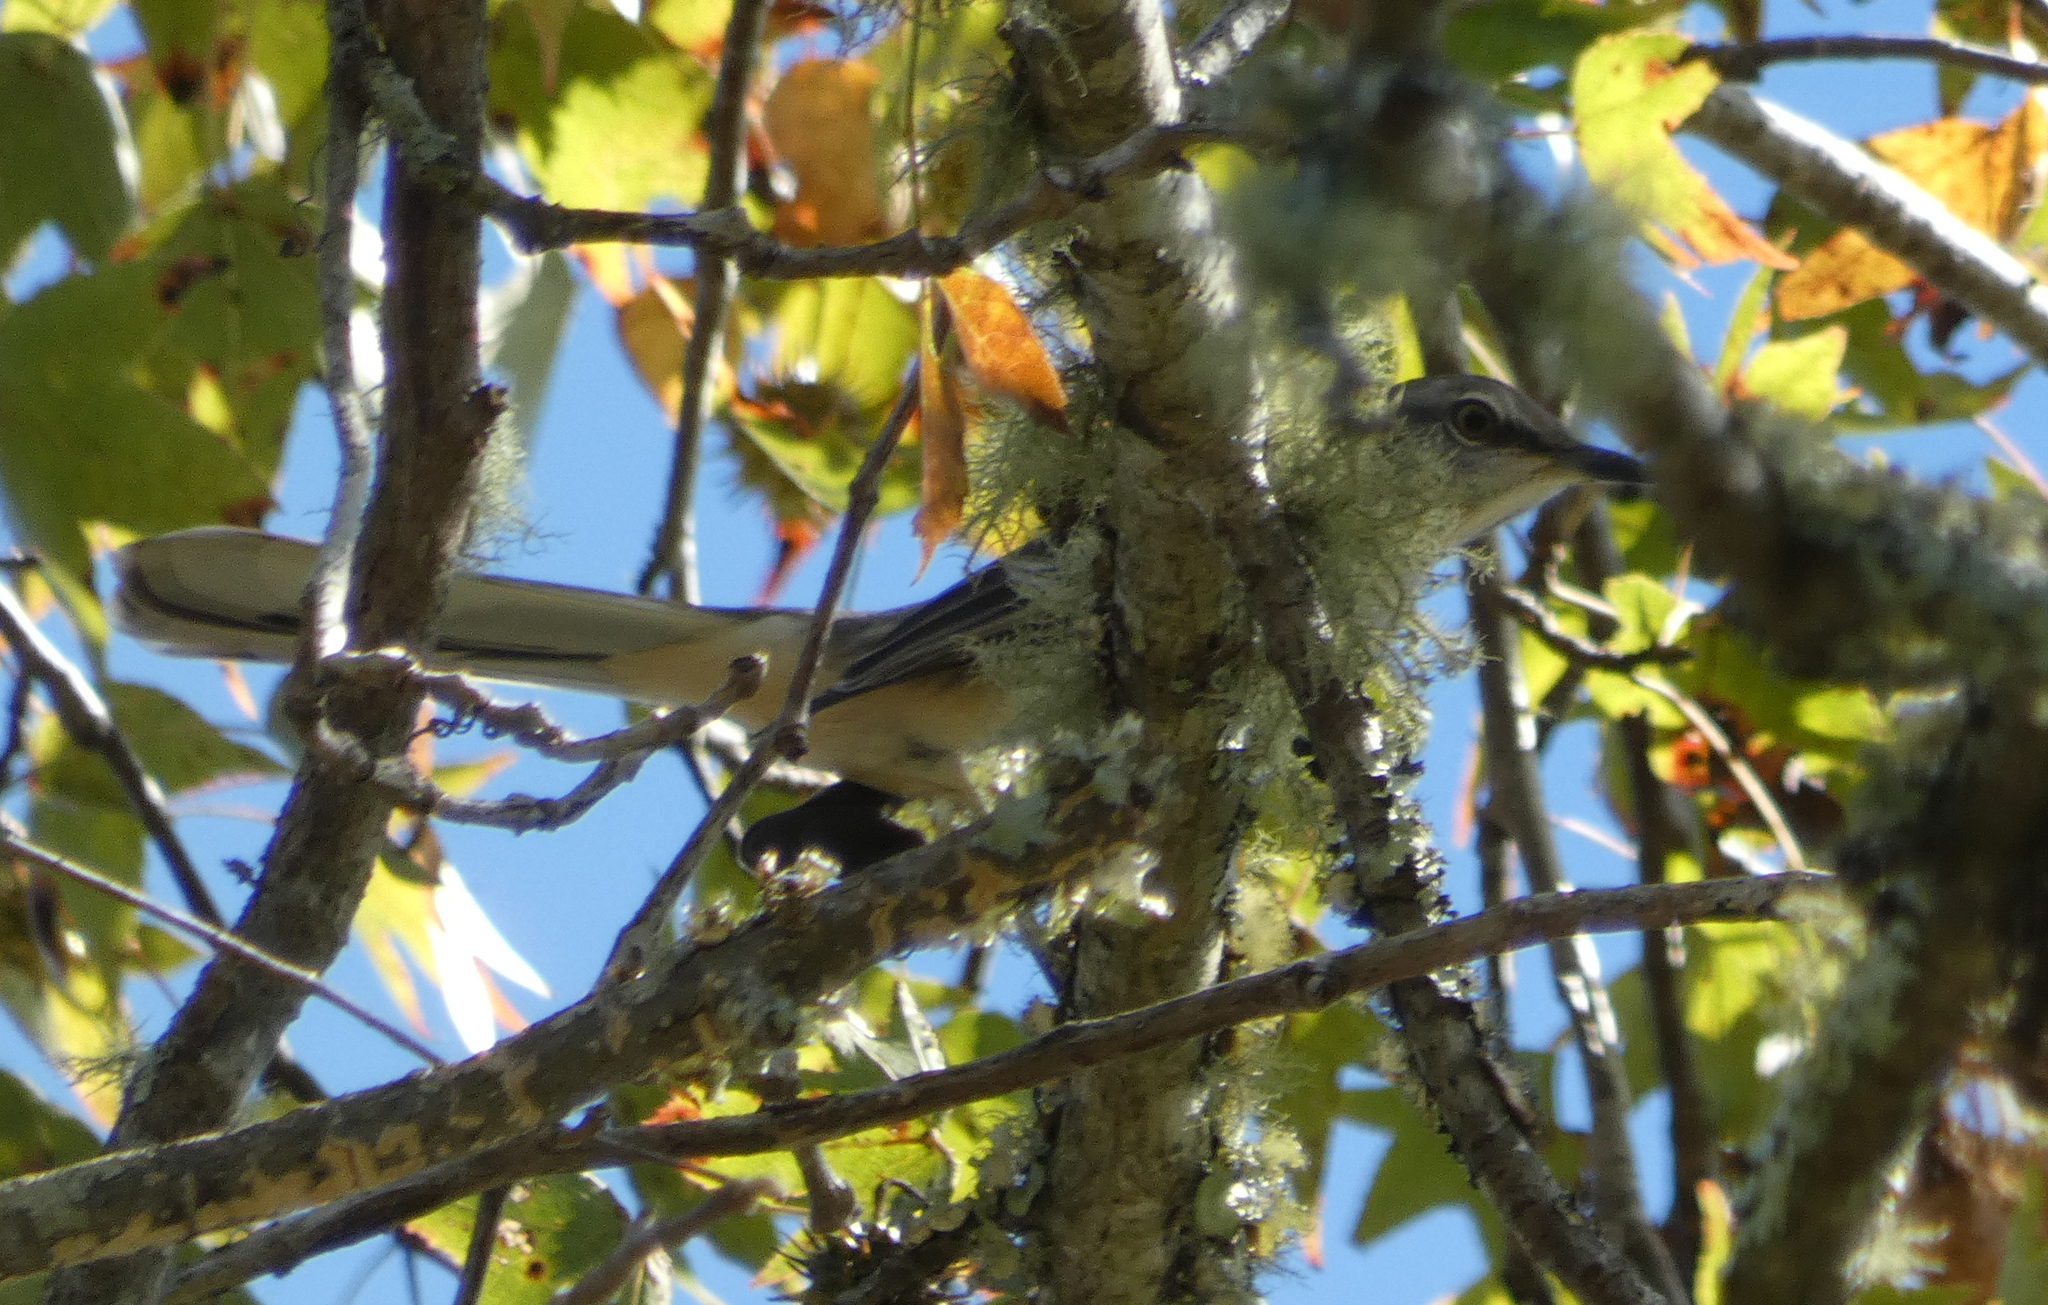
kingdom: Animalia
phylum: Chordata
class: Aves
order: Passeriformes
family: Mimidae
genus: Mimus
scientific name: Mimus polyglottos
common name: Northern mockingbird
